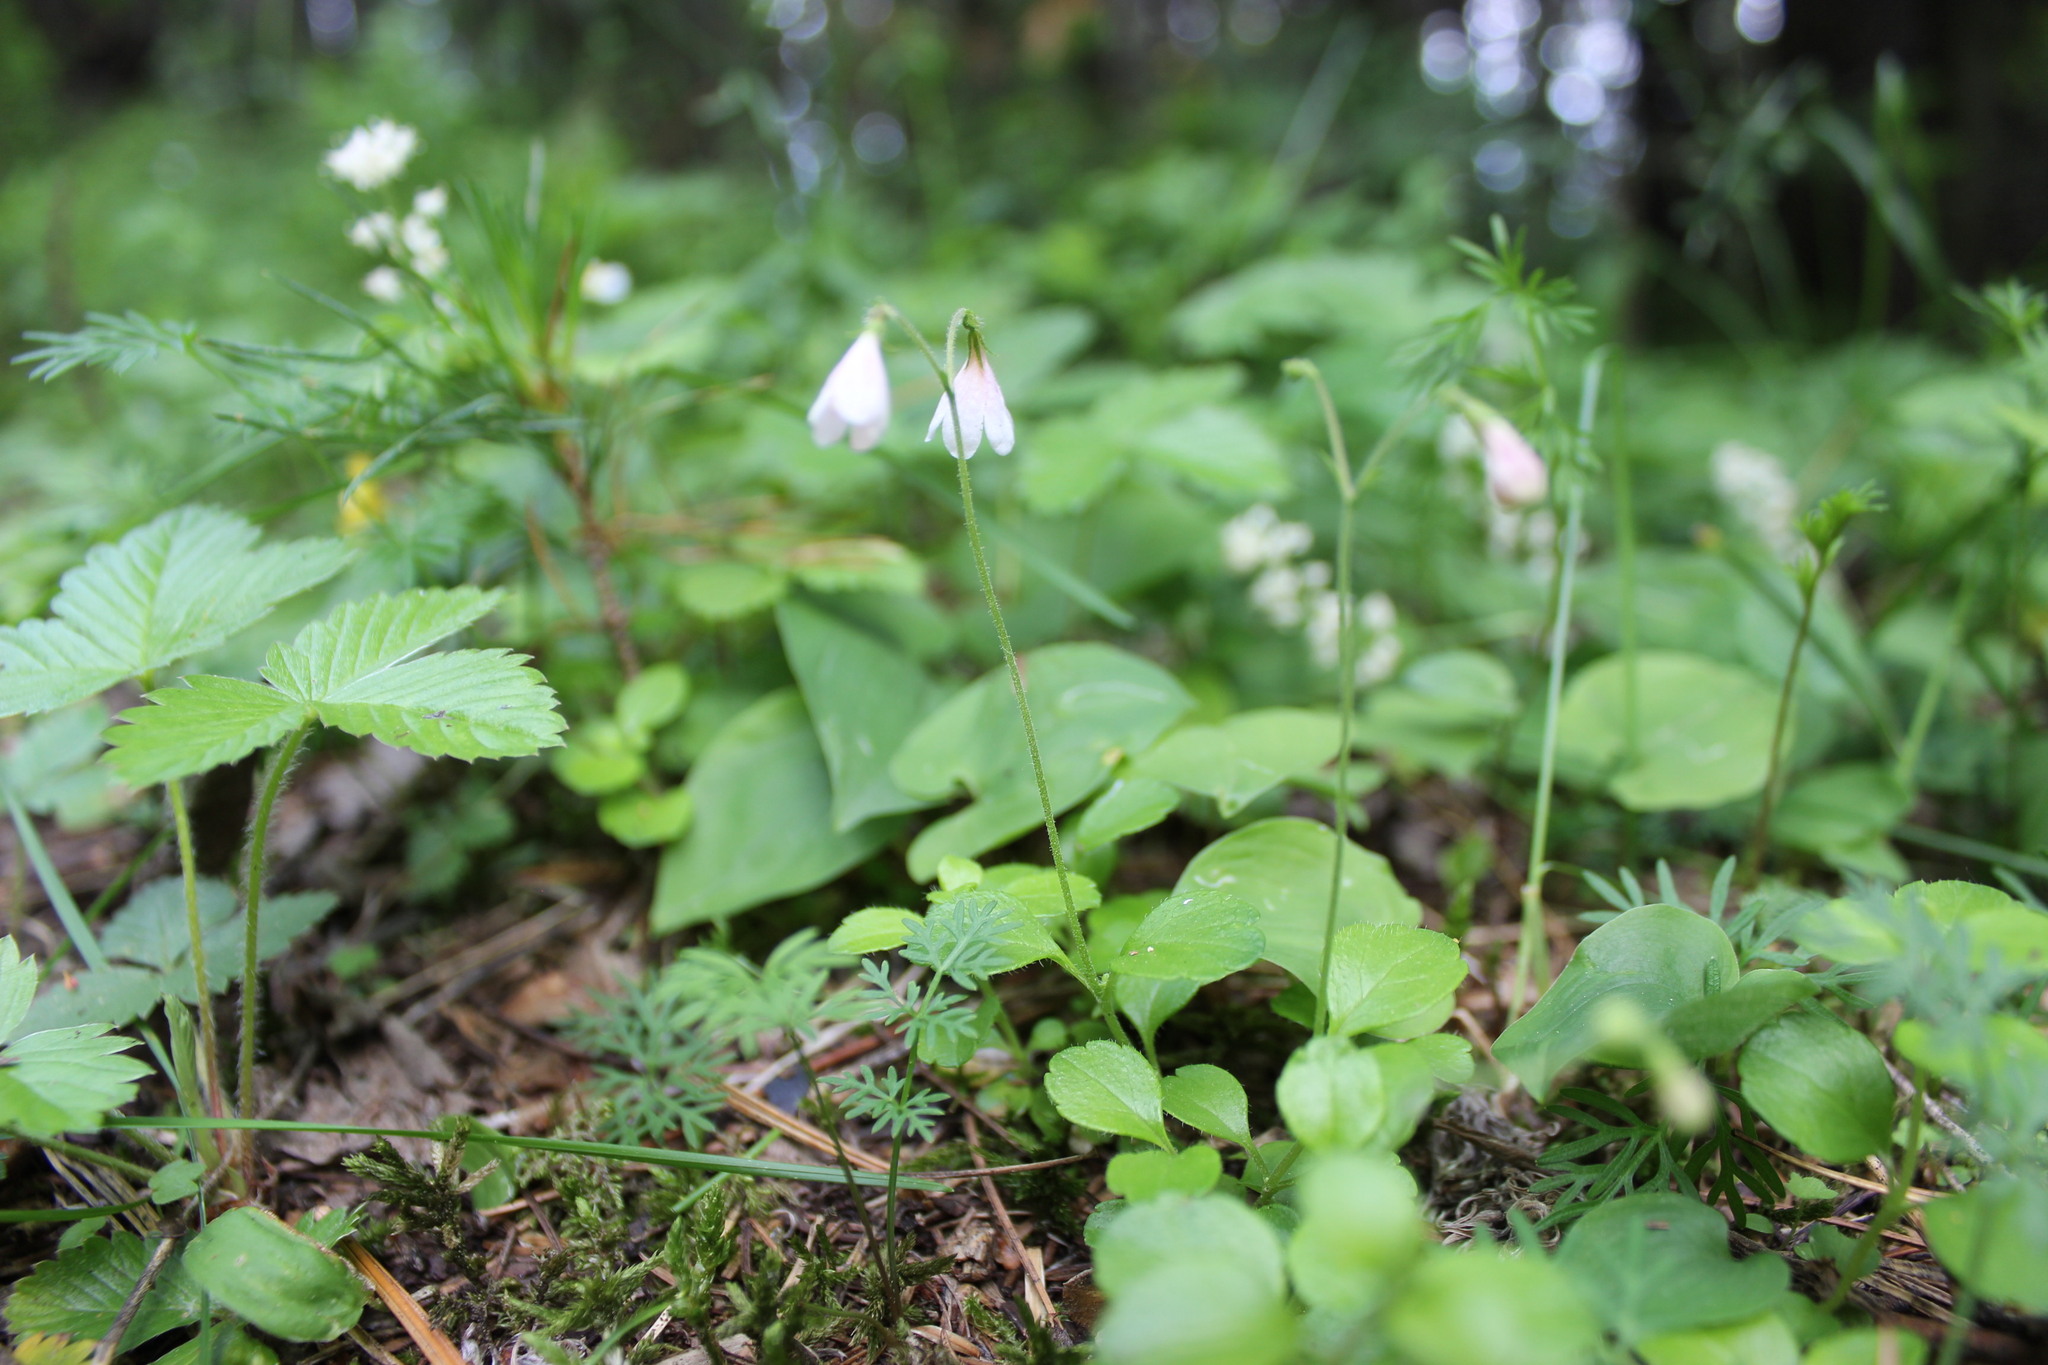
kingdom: Plantae
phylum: Tracheophyta
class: Magnoliopsida
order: Dipsacales
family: Caprifoliaceae
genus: Linnaea
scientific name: Linnaea borealis
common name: Twinflower
